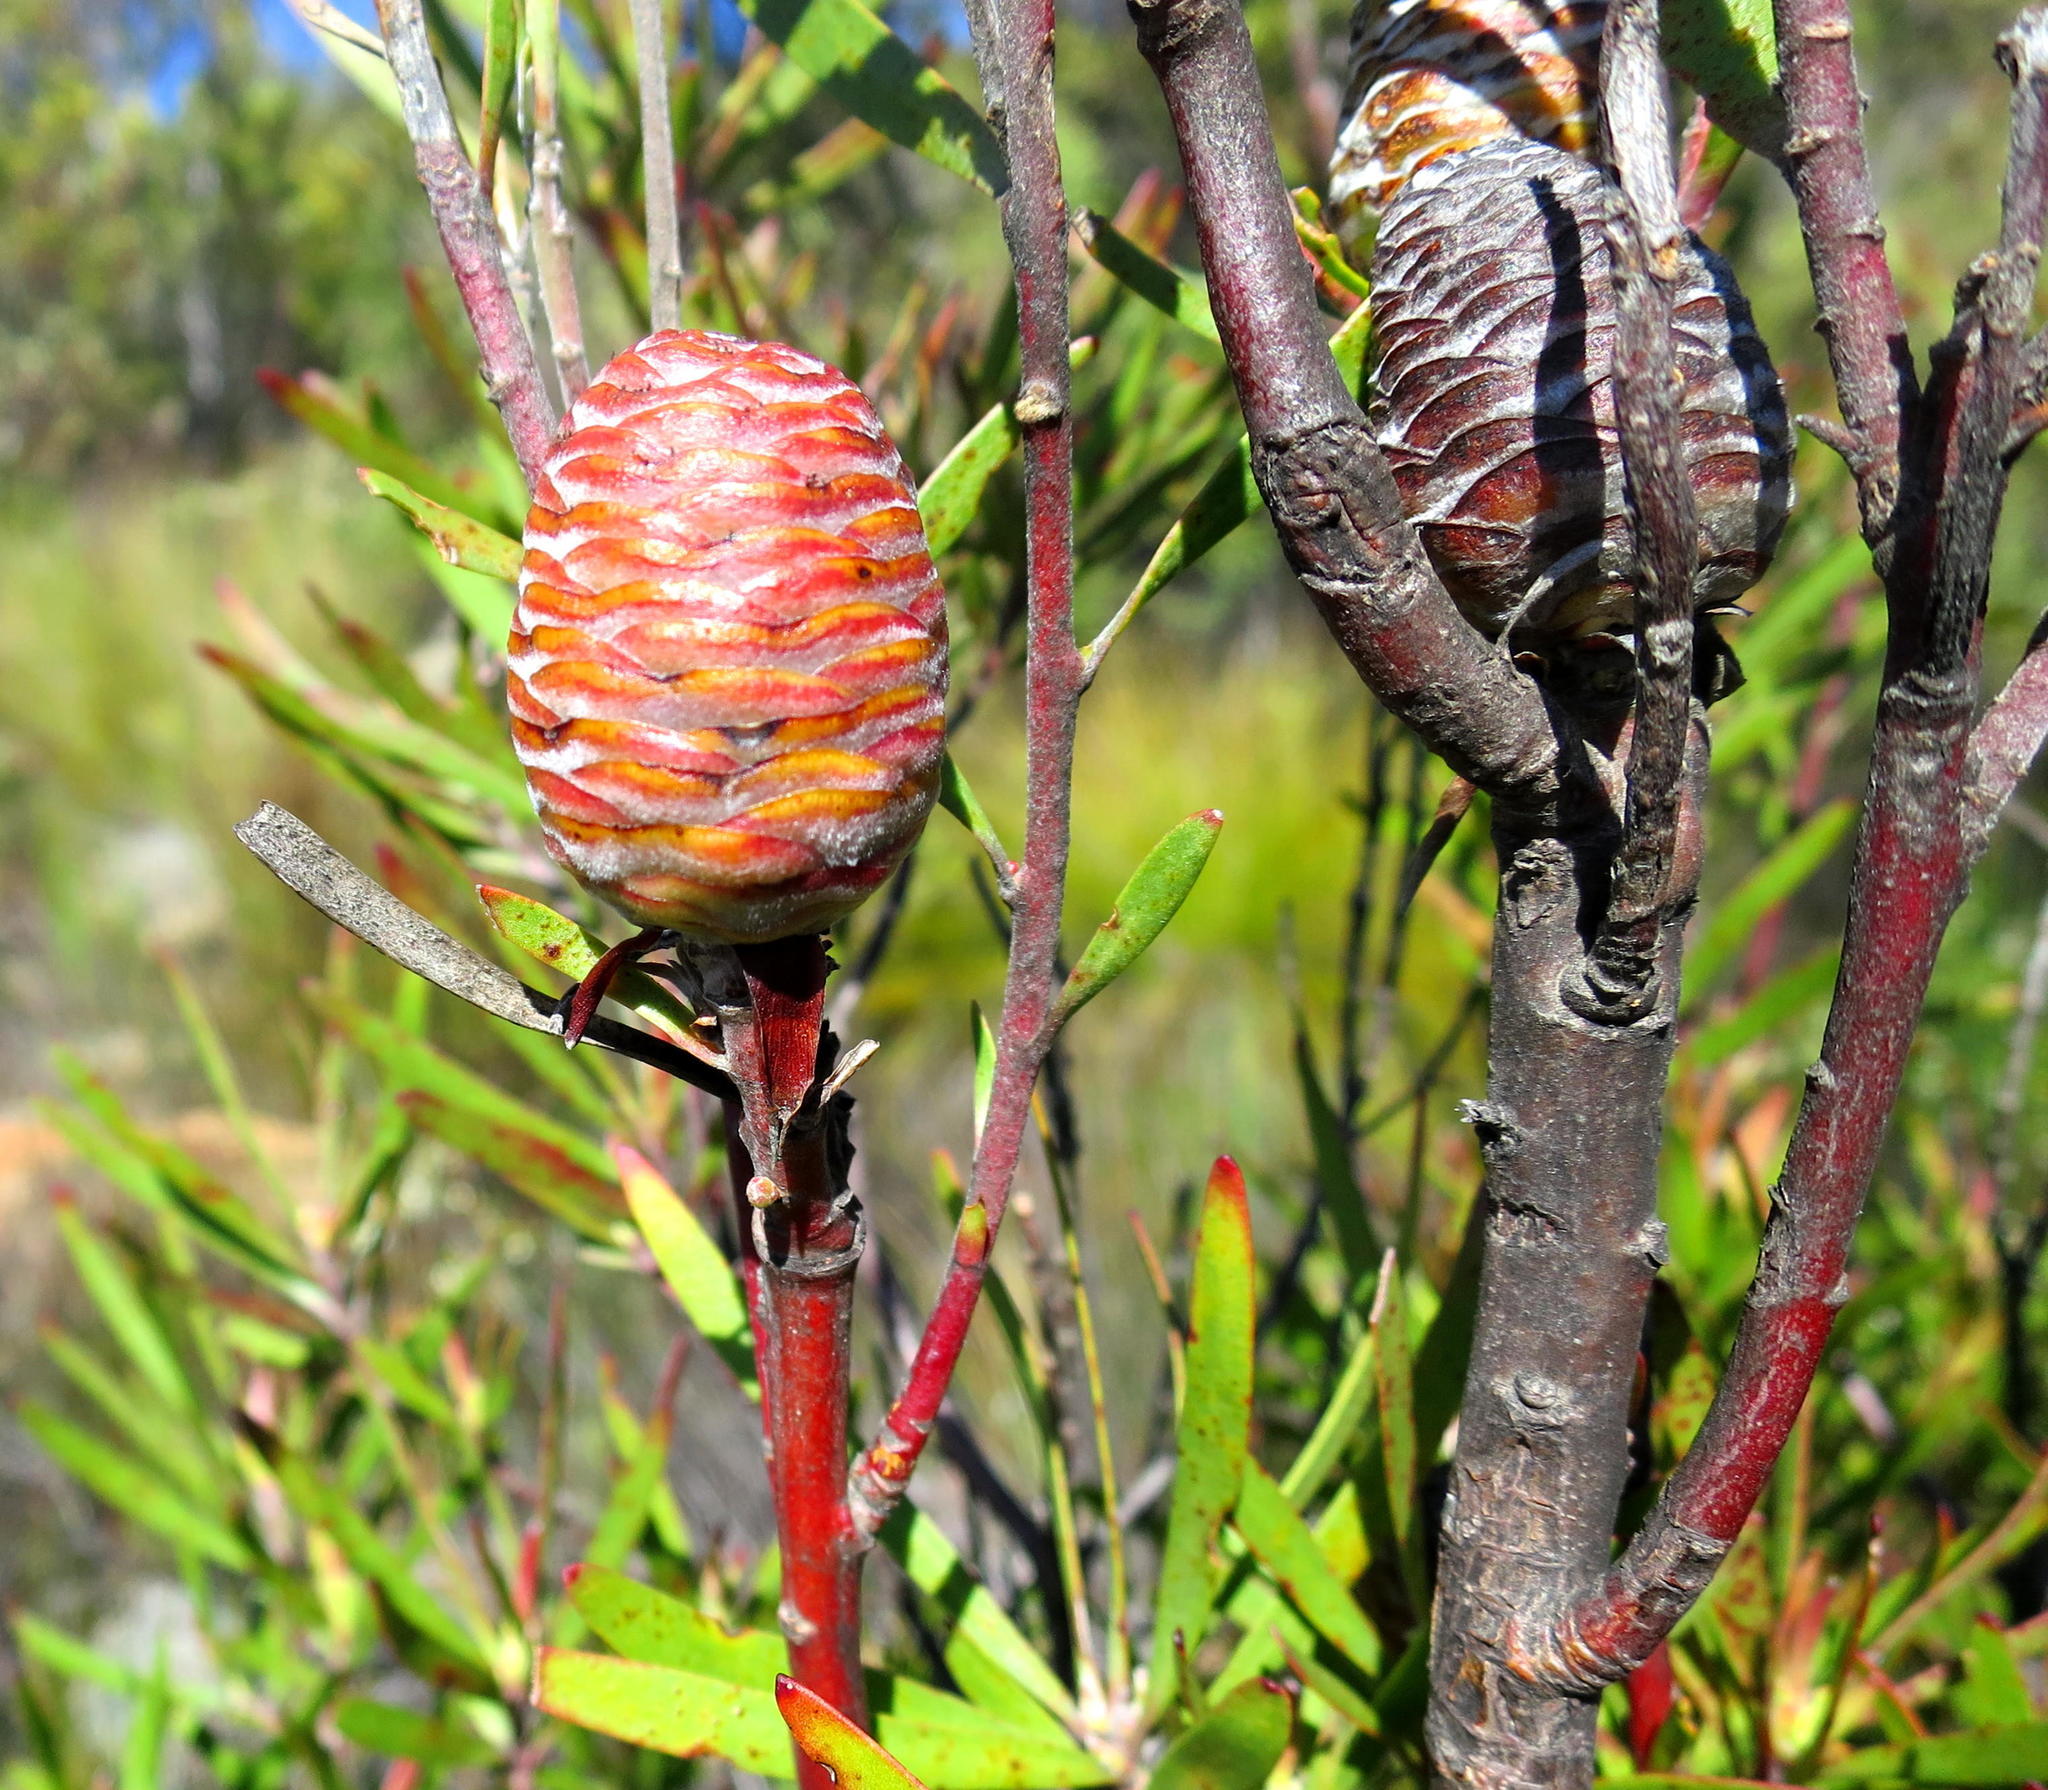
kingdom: Plantae
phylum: Tracheophyta
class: Magnoliopsida
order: Proteales
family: Proteaceae
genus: Leucadendron
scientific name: Leucadendron eucalyptifolium
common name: Gum-leaved conebush
